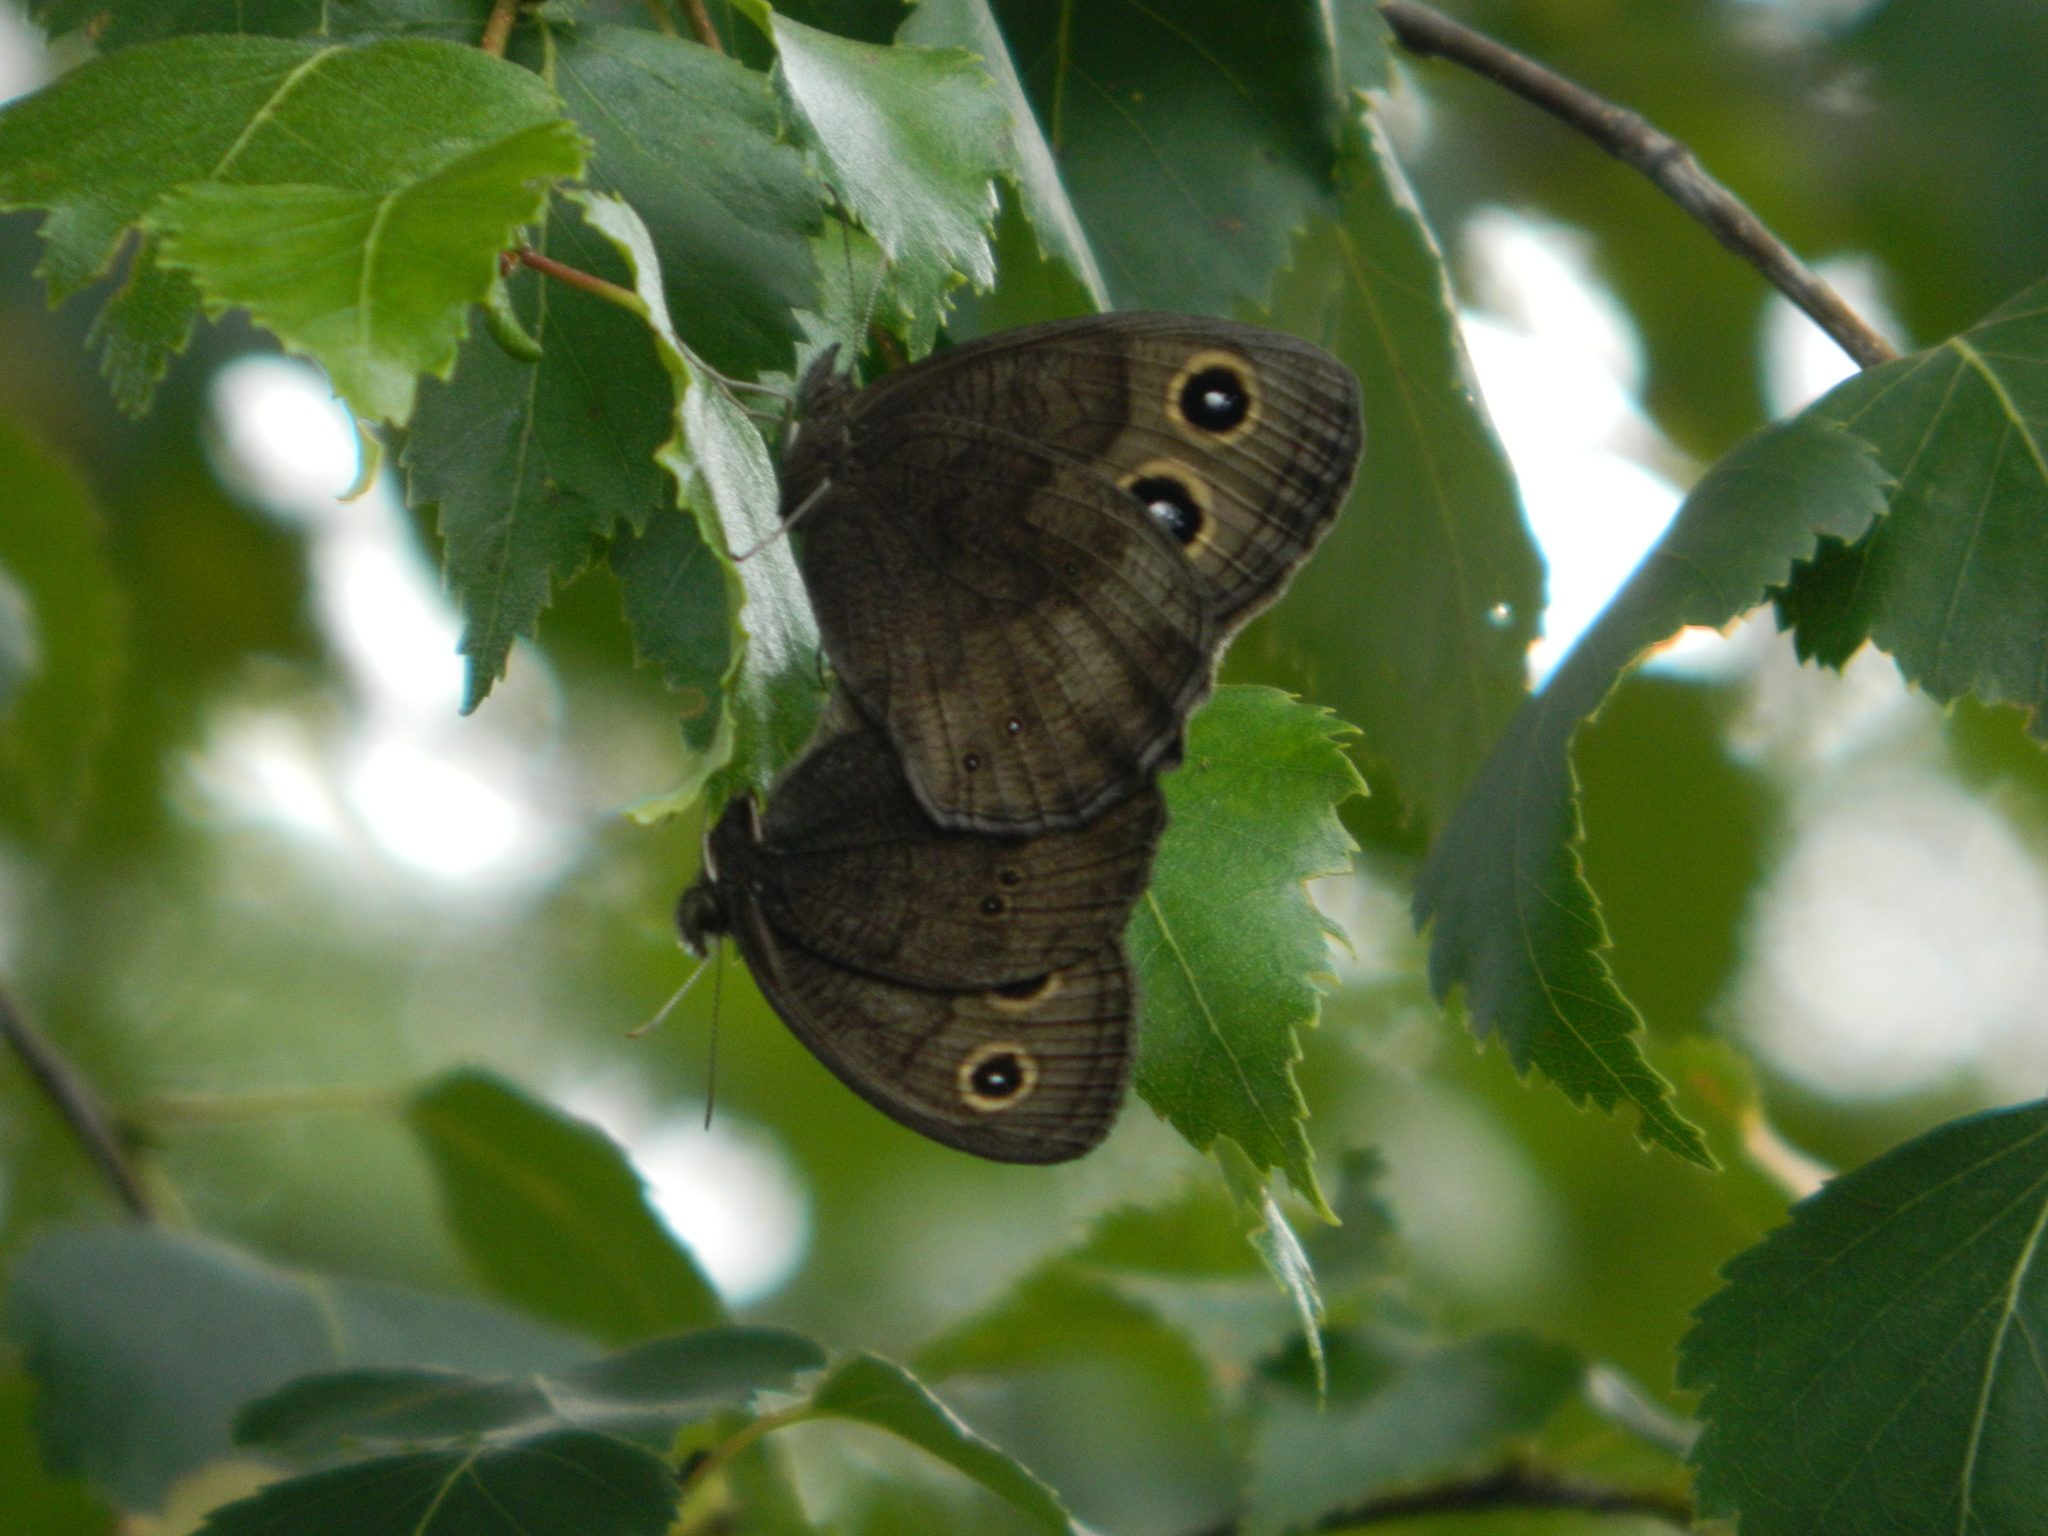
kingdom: Animalia
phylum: Arthropoda
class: Insecta
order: Lepidoptera
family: Nymphalidae
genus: Cercyonis
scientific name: Cercyonis pegala
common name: Common wood-nymph
